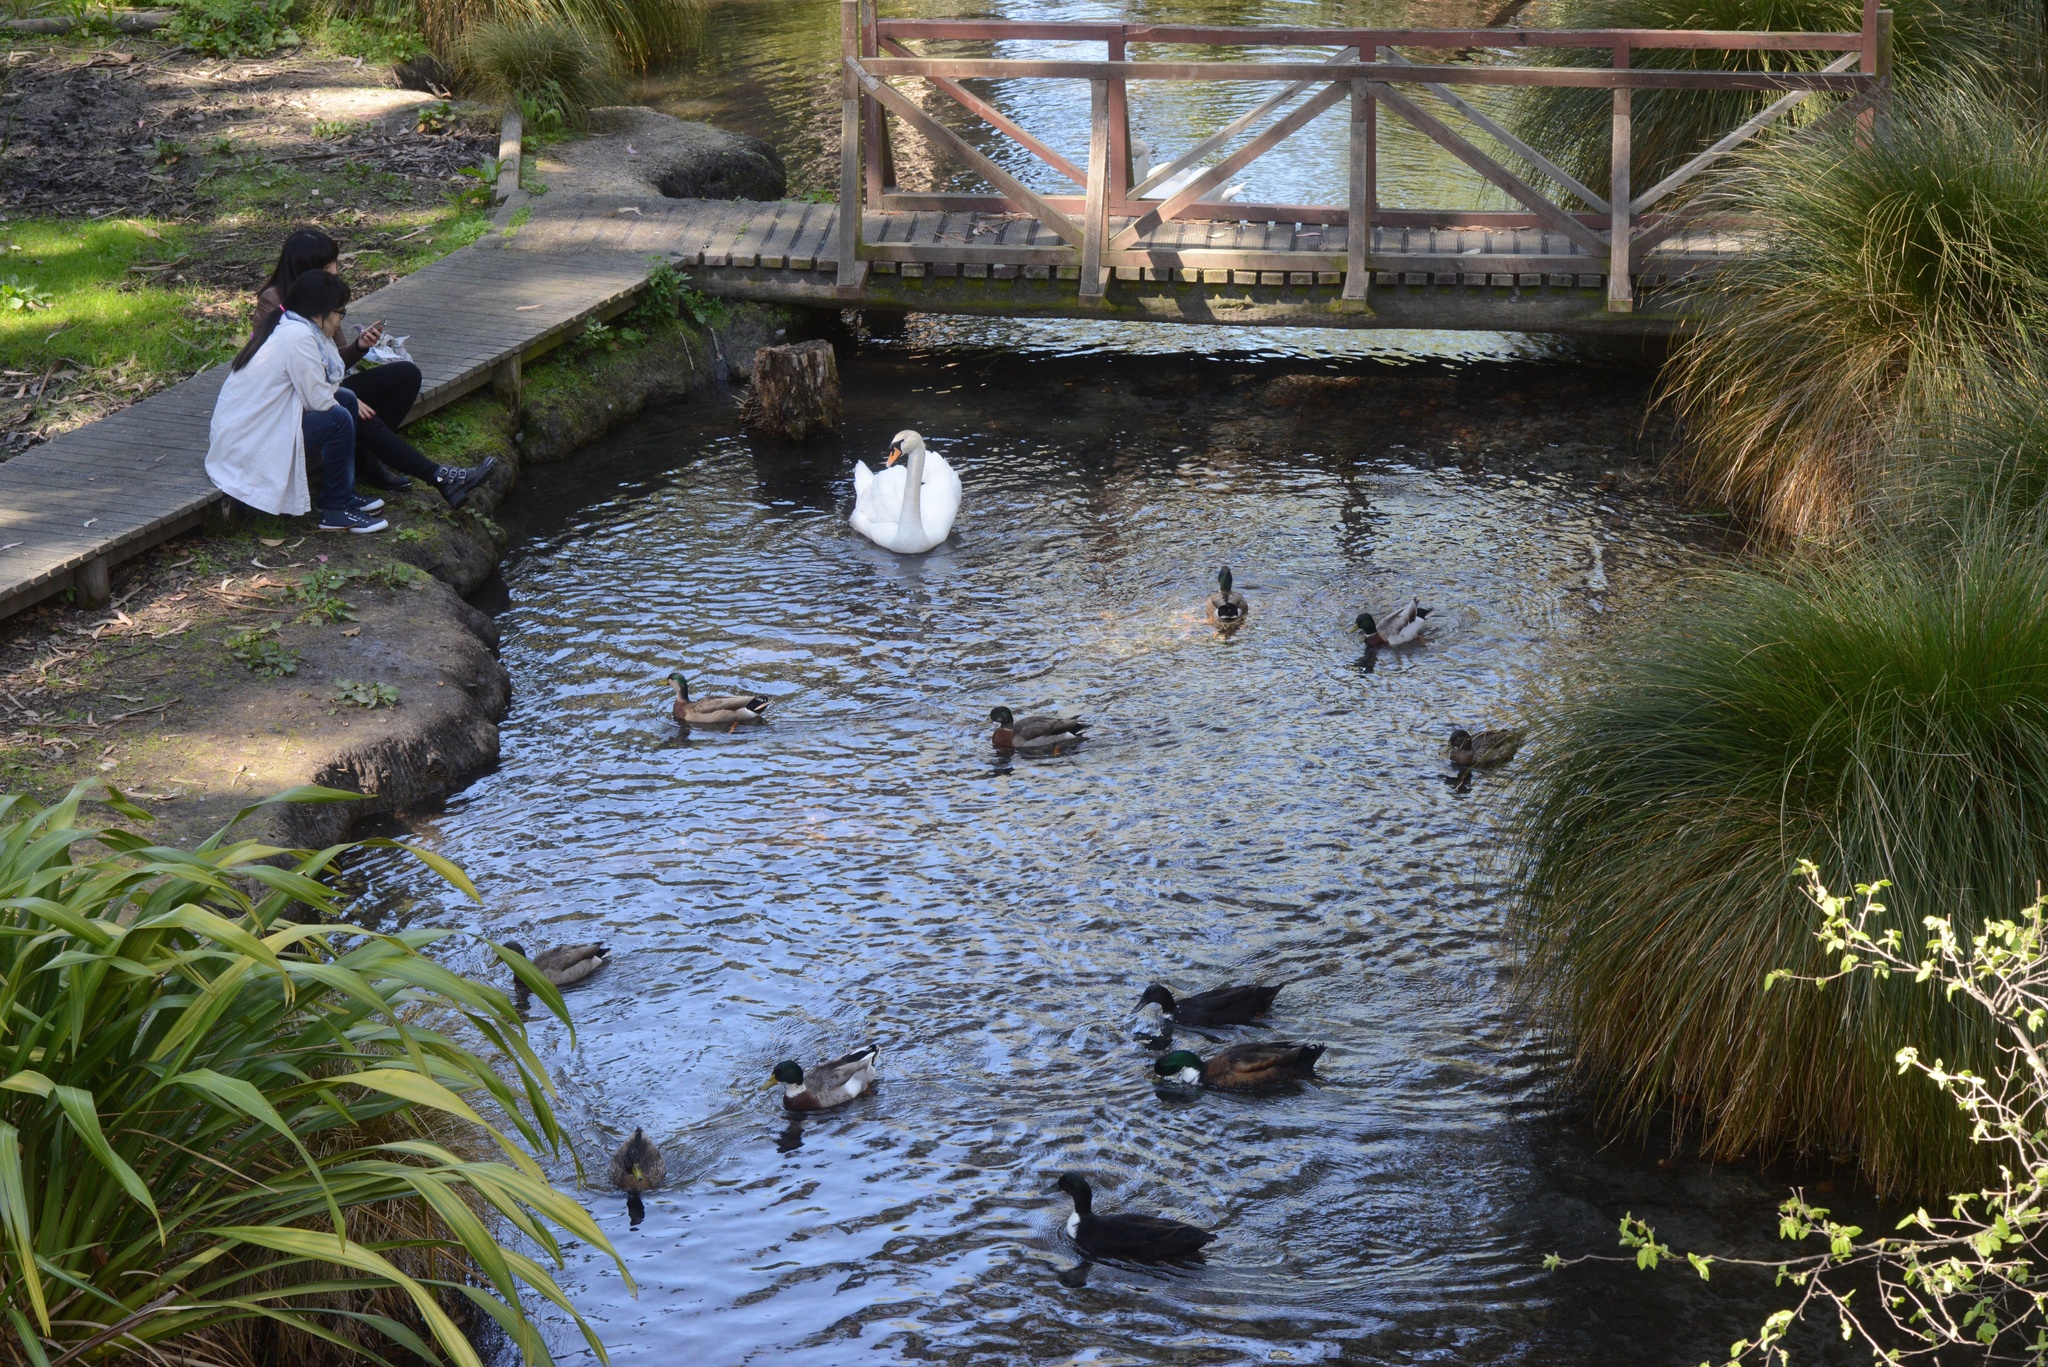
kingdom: Animalia
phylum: Chordata
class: Aves
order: Anseriformes
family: Anatidae
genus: Anas
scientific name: Anas platyrhynchos
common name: Mallard
